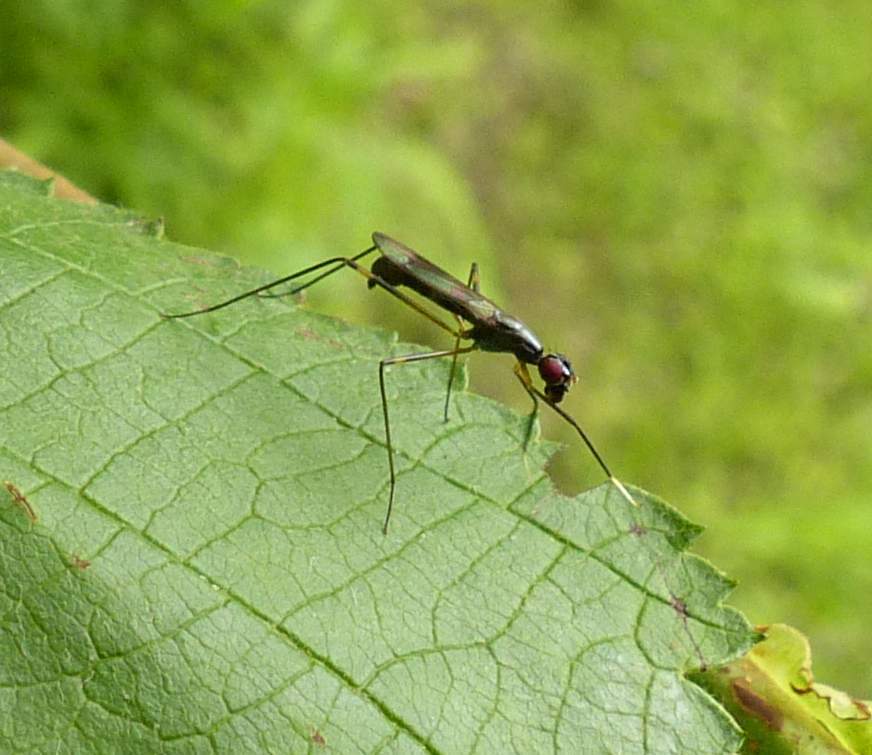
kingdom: Animalia
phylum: Arthropoda
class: Insecta
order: Diptera
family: Micropezidae
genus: Rainieria
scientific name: Rainieria antennaepes
